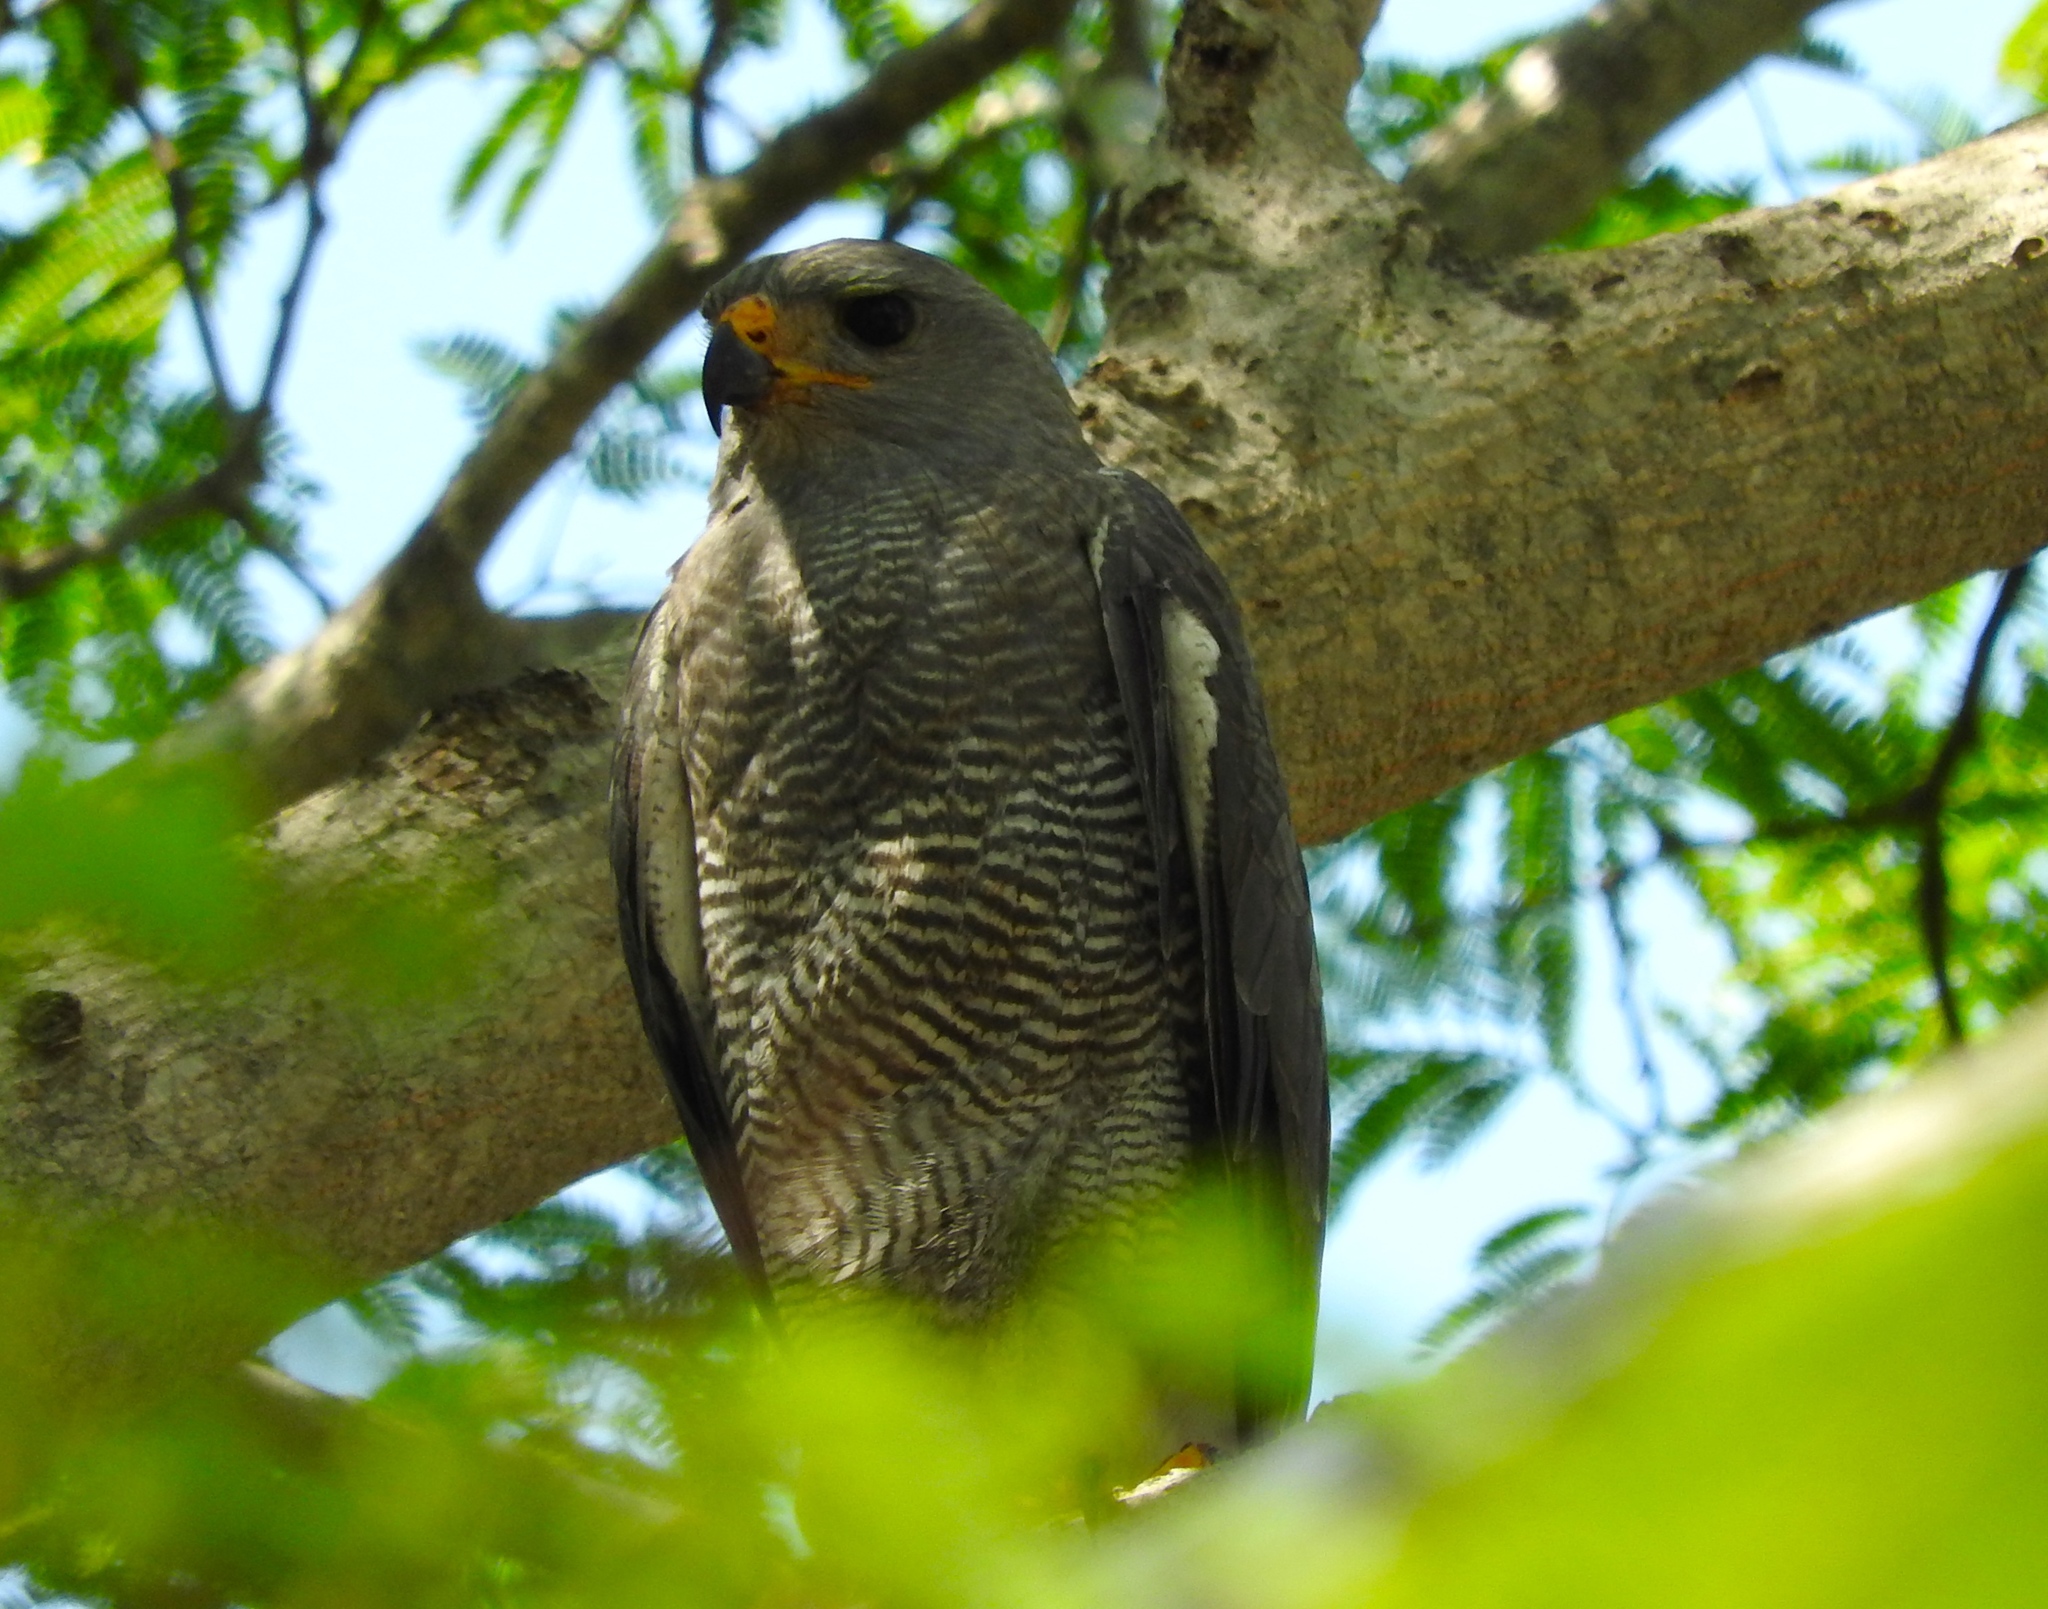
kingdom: Animalia
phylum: Chordata
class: Aves
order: Accipitriformes
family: Accipitridae
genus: Buteo
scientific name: Buteo nitidus
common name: Grey-lined hawk
